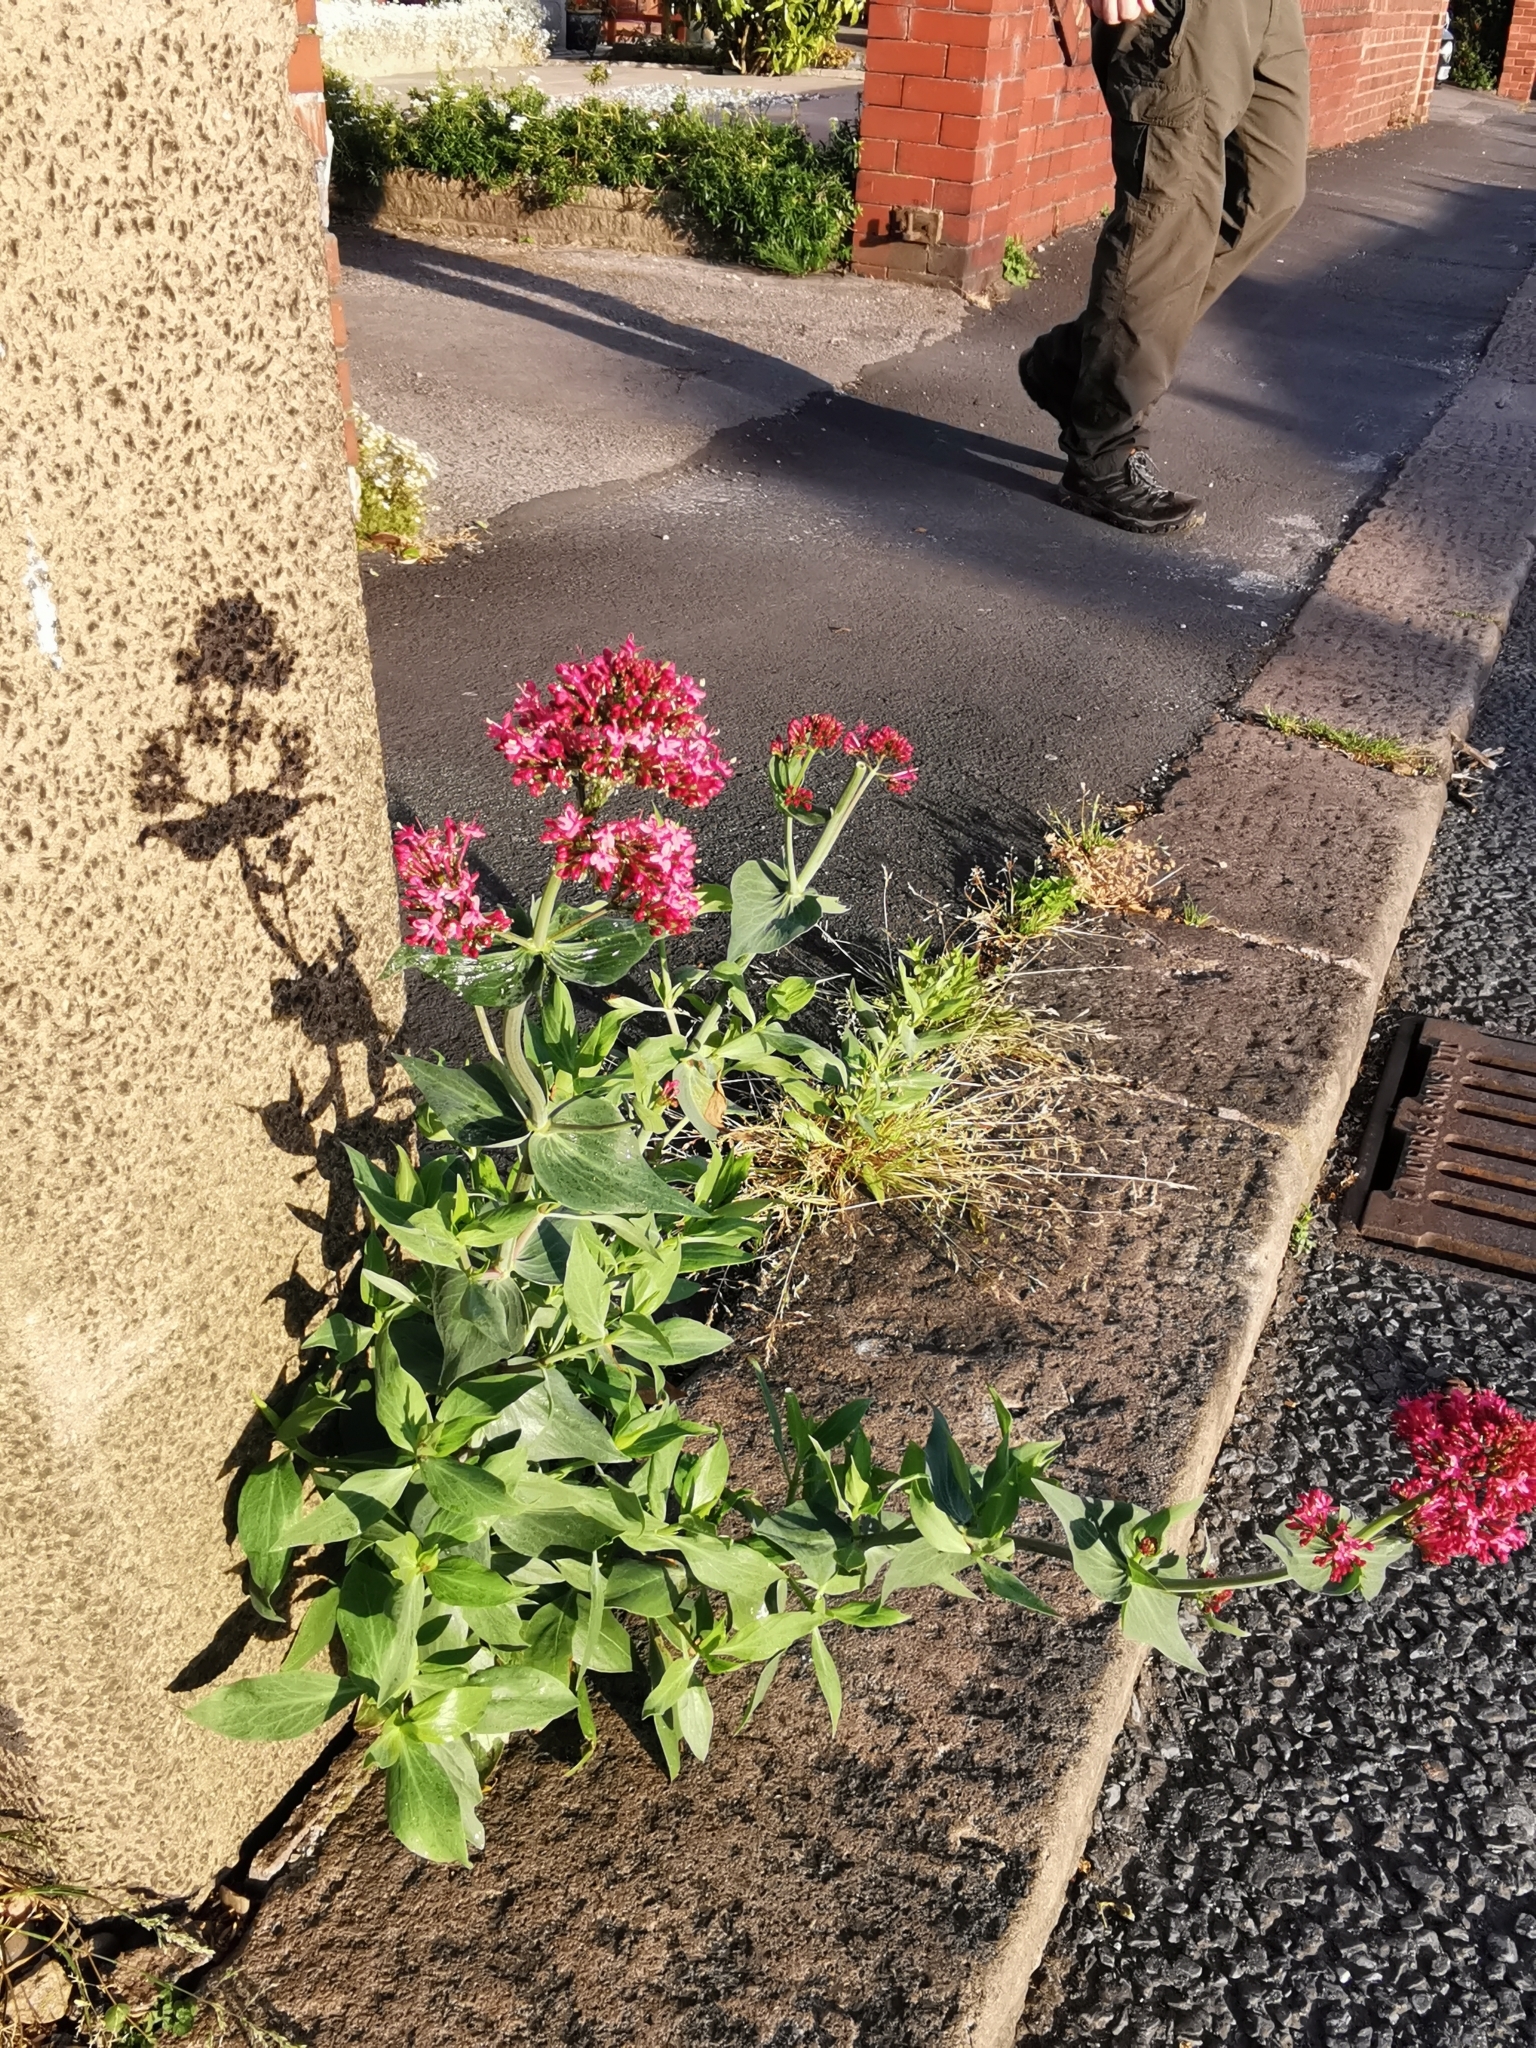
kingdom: Plantae
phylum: Tracheophyta
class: Magnoliopsida
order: Dipsacales
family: Caprifoliaceae
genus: Centranthus
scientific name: Centranthus ruber
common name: Red valerian
